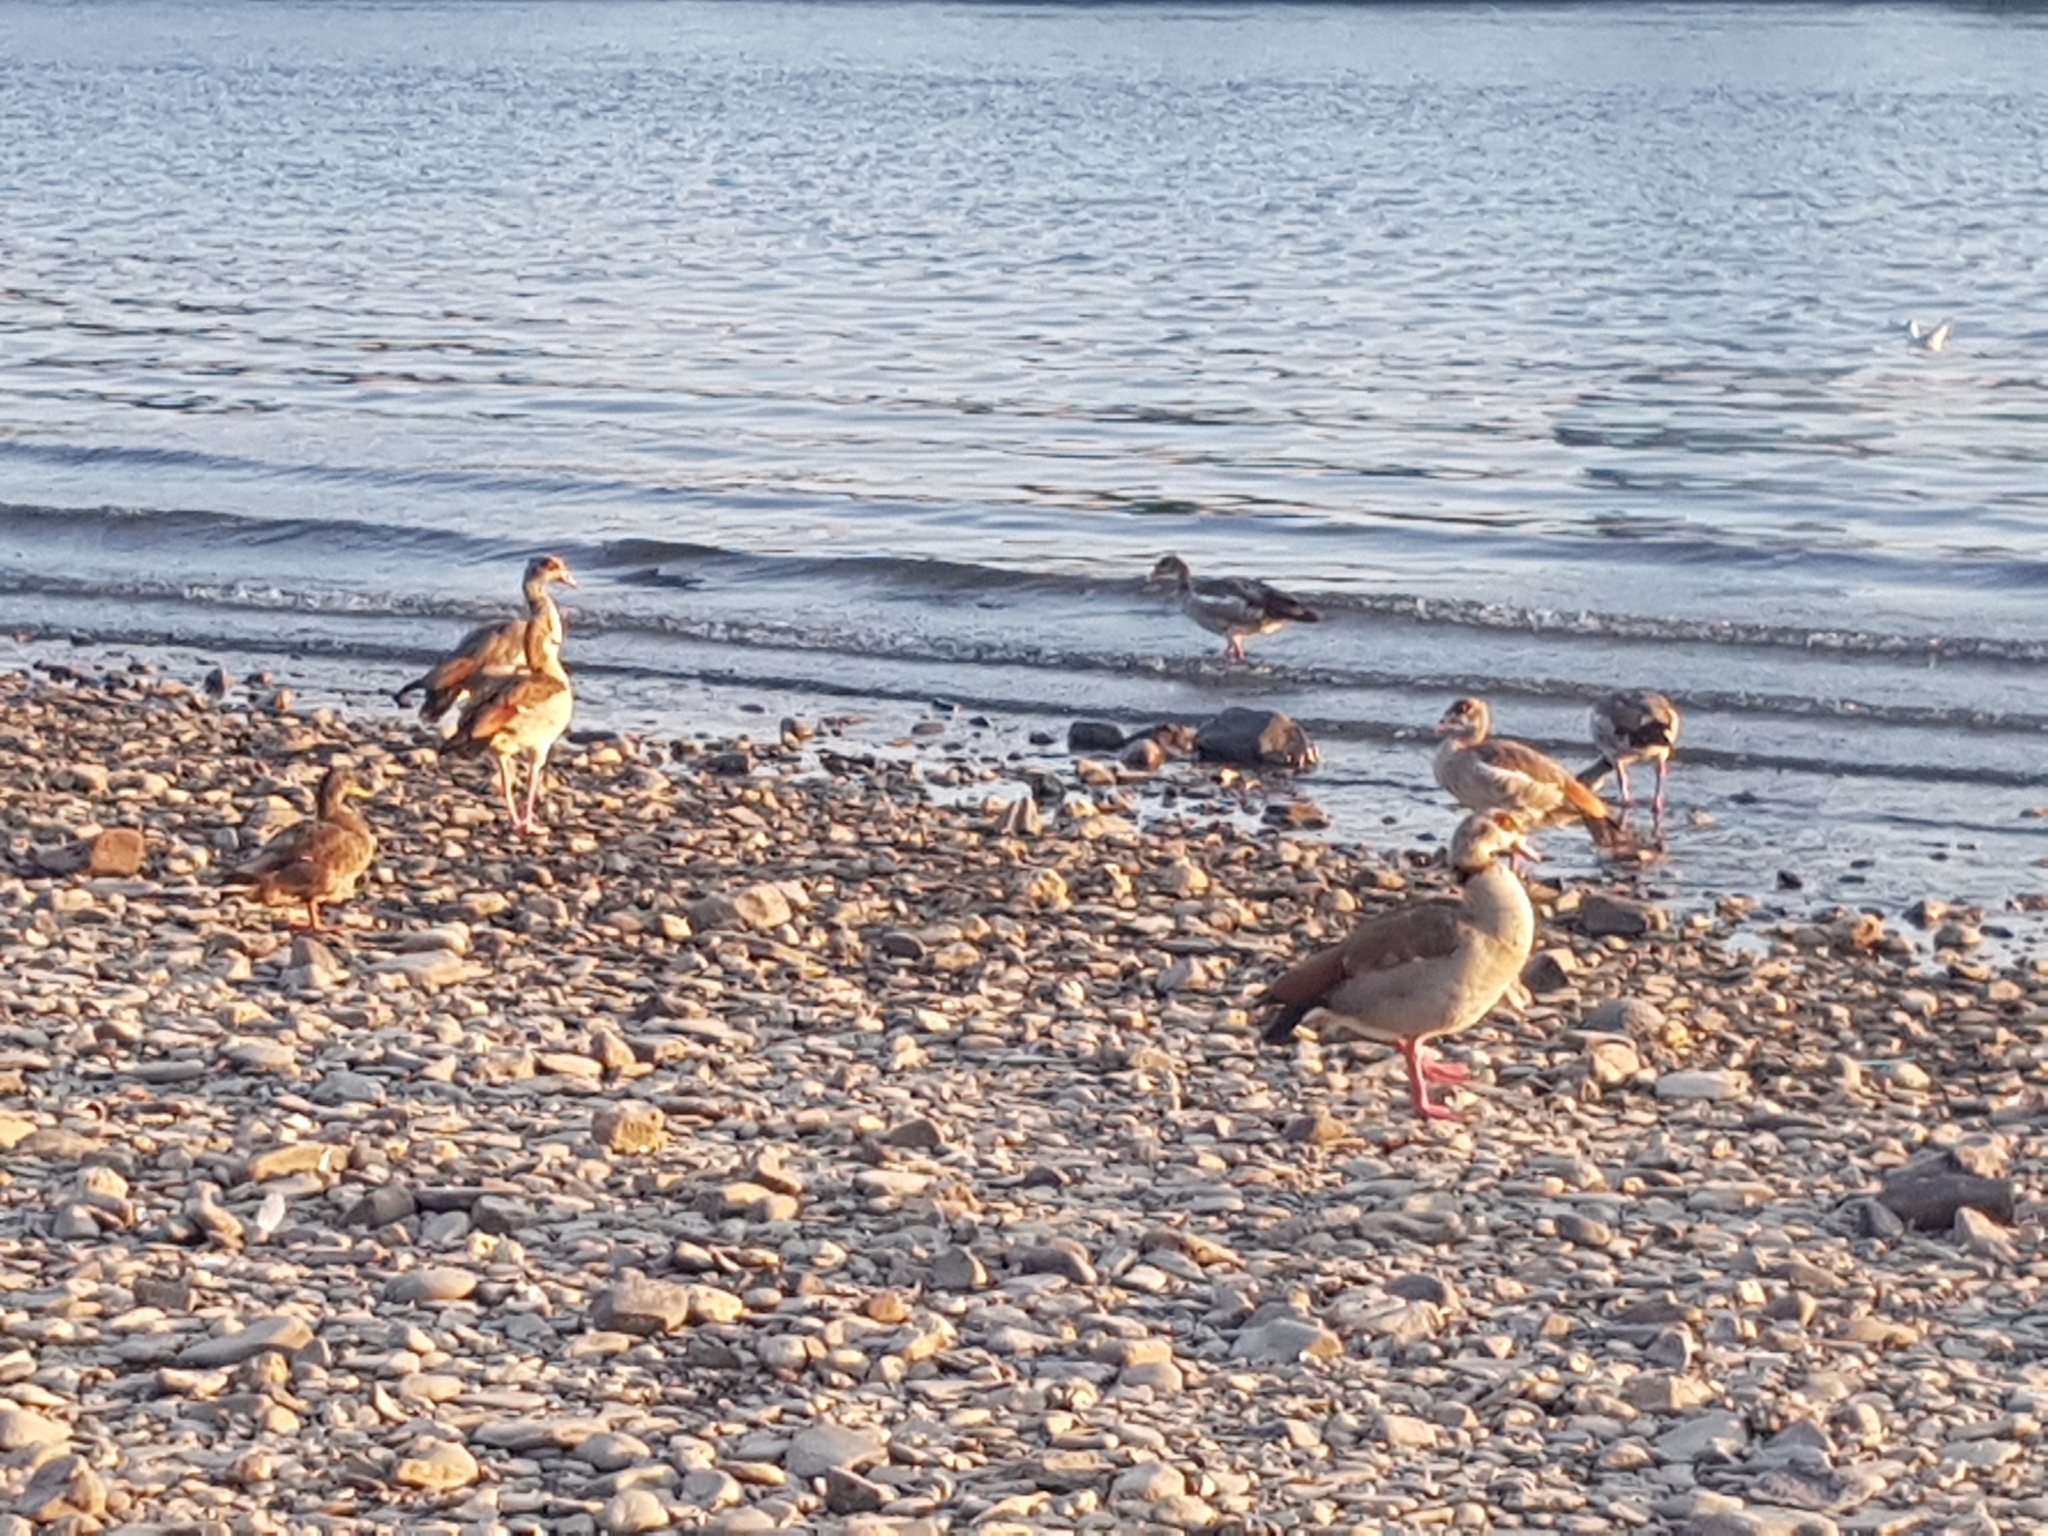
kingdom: Animalia
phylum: Chordata
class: Aves
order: Anseriformes
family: Anatidae
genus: Alopochen
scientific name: Alopochen aegyptiaca
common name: Egyptian goose
